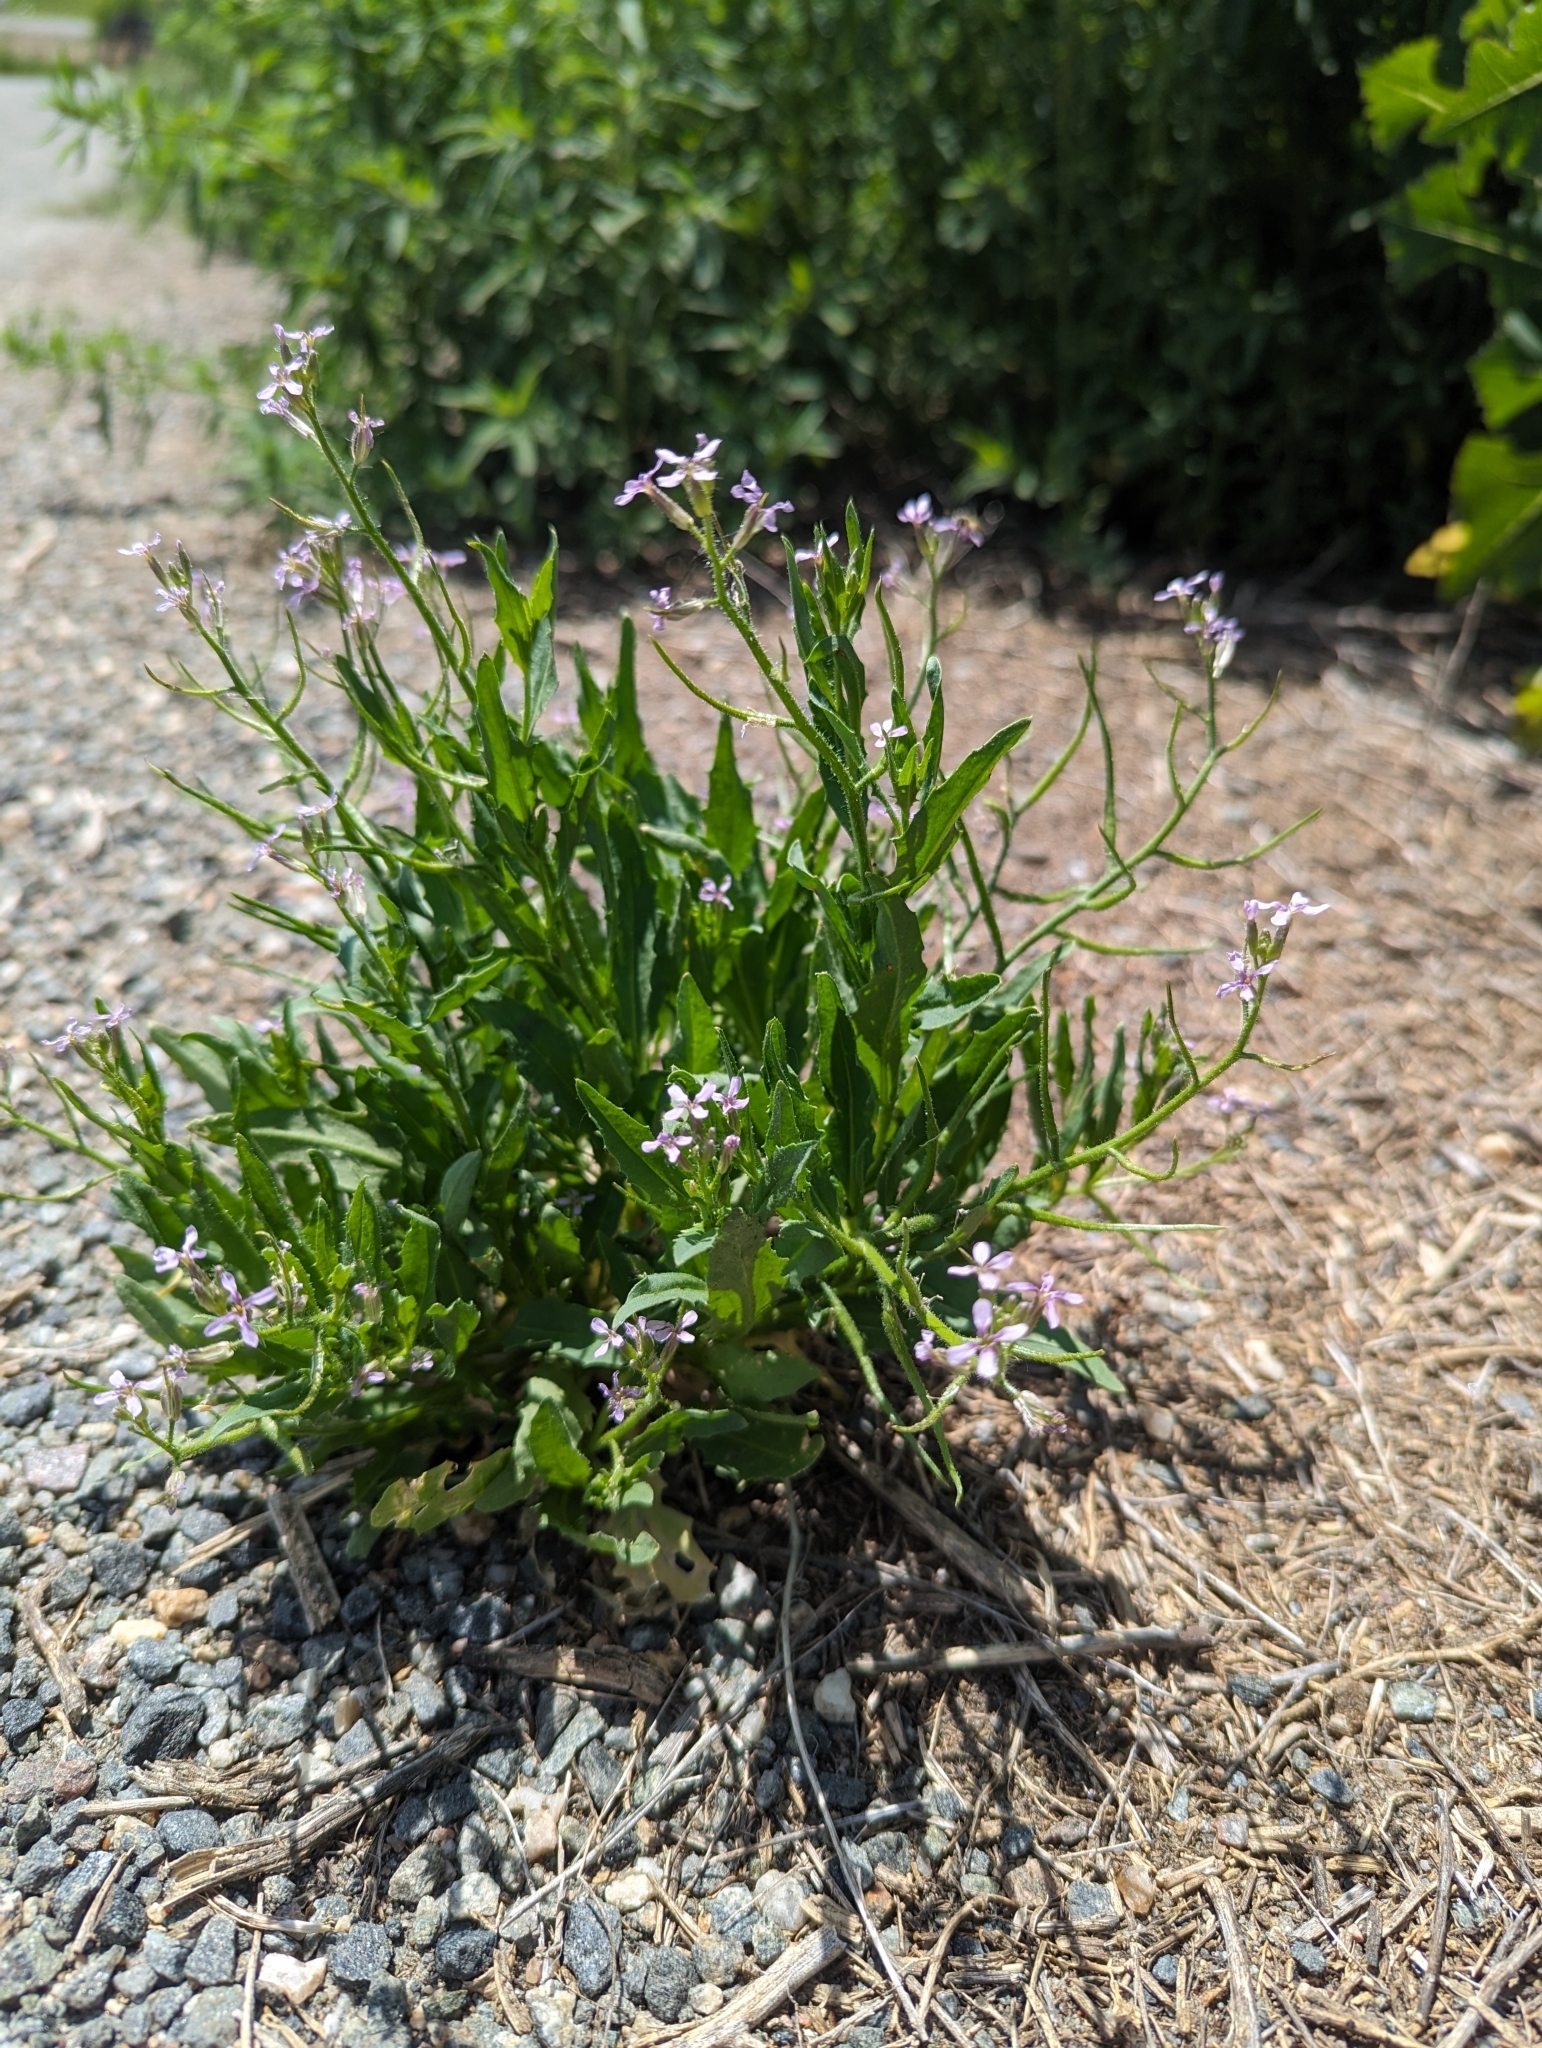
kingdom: Plantae
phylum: Tracheophyta
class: Magnoliopsida
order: Brassicales
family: Brassicaceae
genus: Chorispora
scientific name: Chorispora tenella
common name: Crossflower
